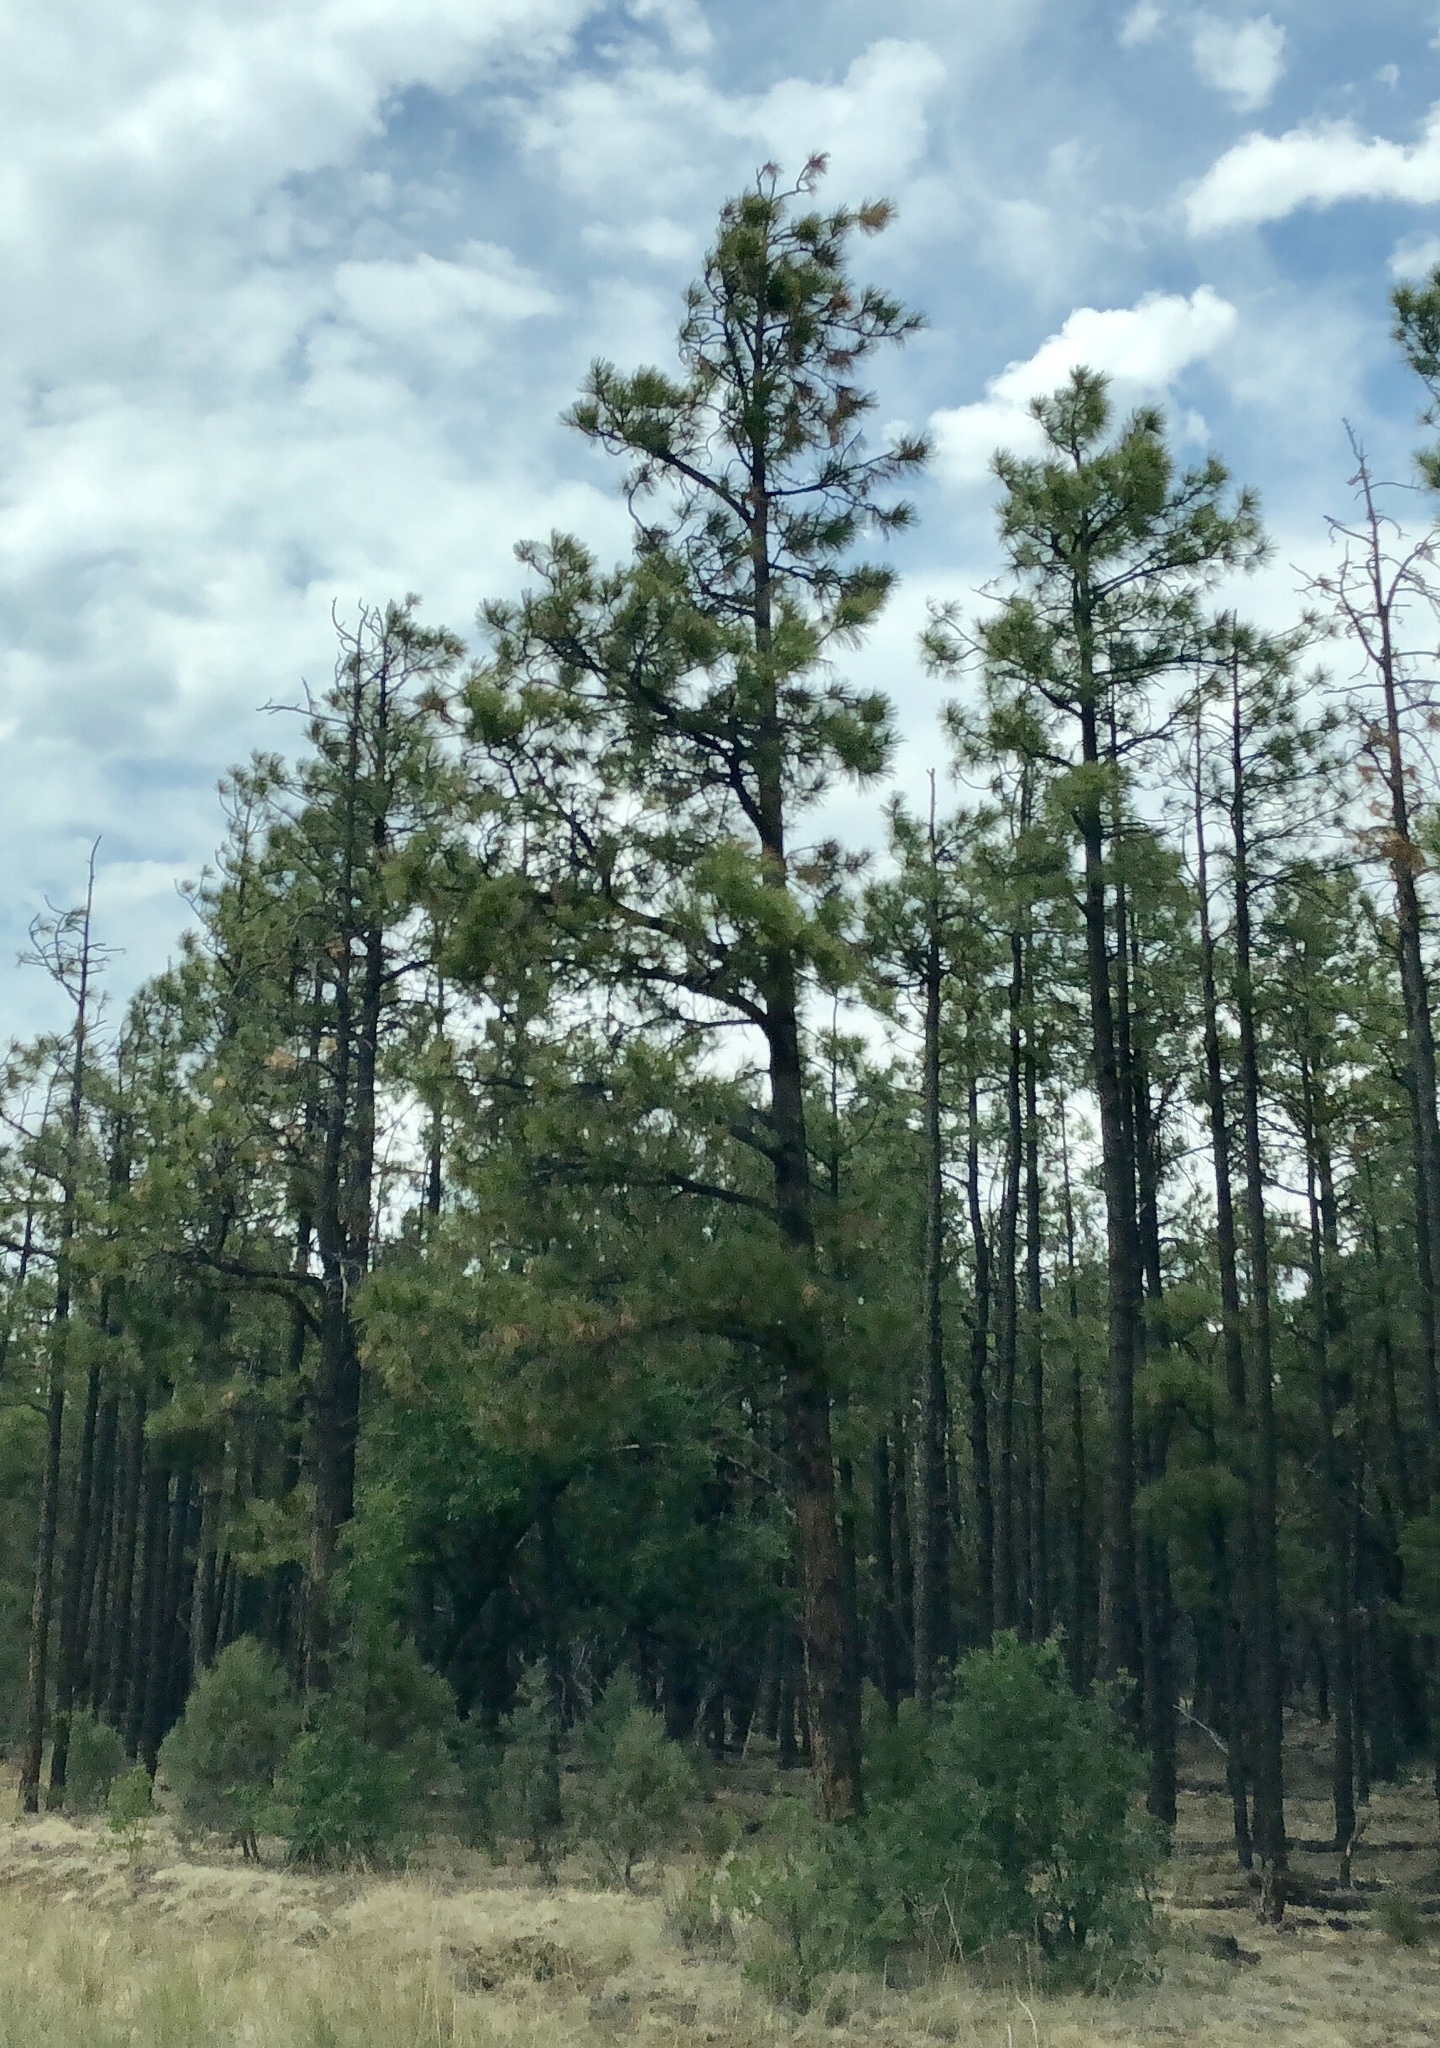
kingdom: Plantae
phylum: Tracheophyta
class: Pinopsida
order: Pinales
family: Pinaceae
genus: Pinus
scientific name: Pinus ponderosa
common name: Western yellow-pine
